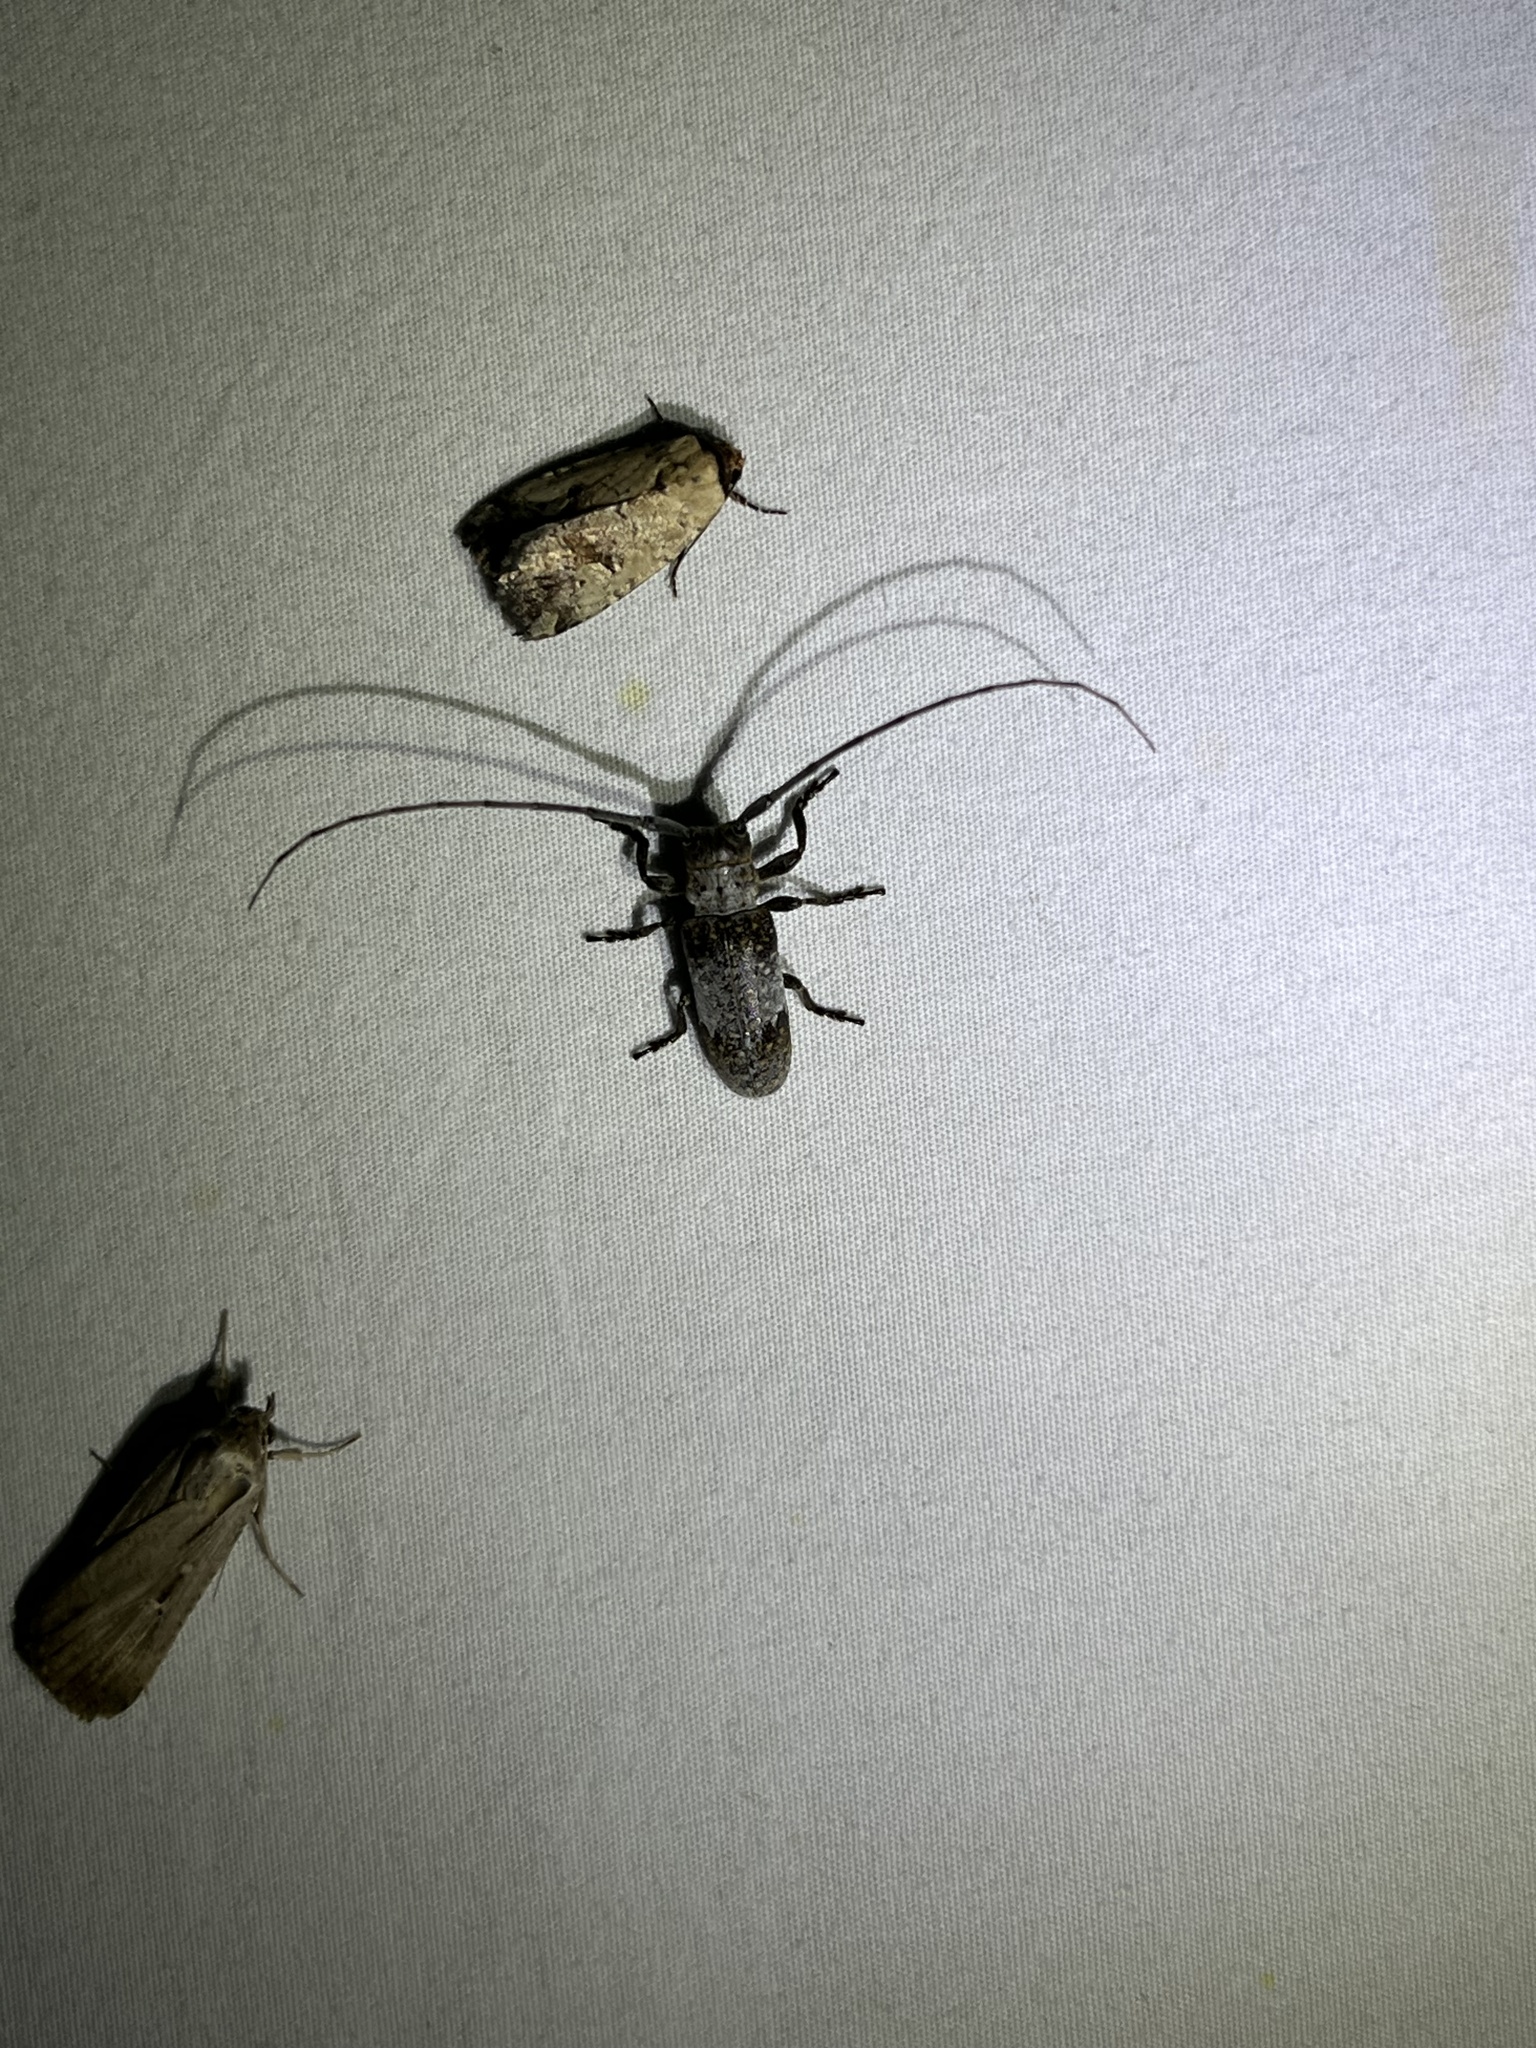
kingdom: Animalia
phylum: Arthropoda
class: Insecta
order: Coleoptera
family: Cerambycidae
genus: Oncideres
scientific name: Oncideres cingulata
